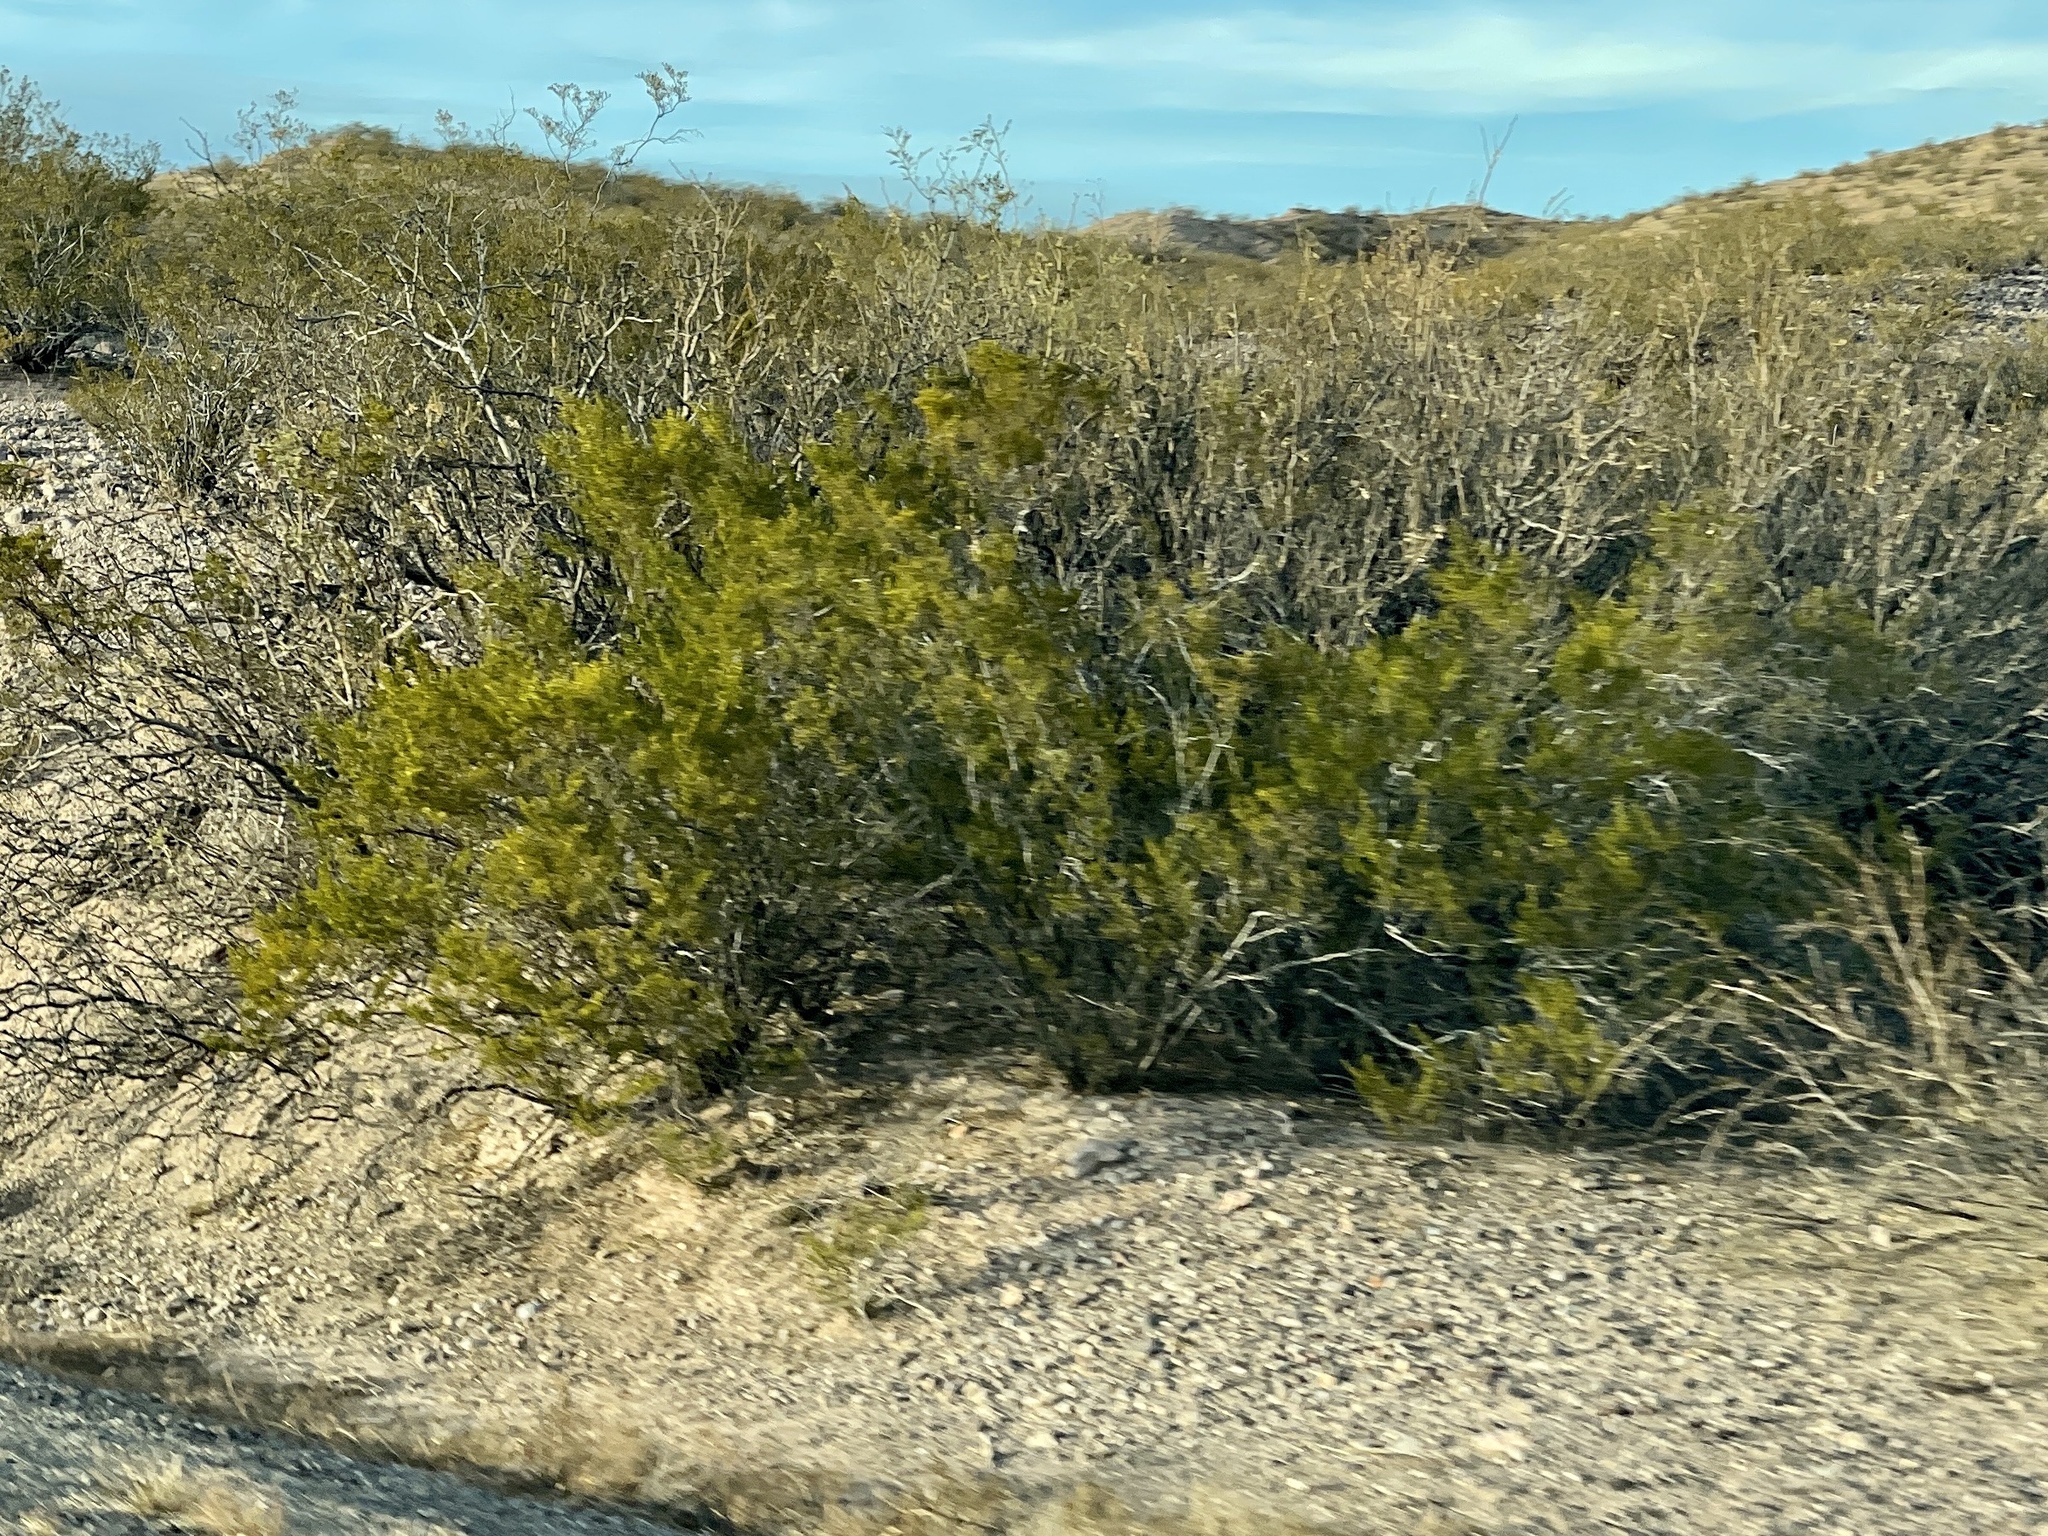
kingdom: Plantae
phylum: Tracheophyta
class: Magnoliopsida
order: Zygophyllales
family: Zygophyllaceae
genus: Larrea
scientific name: Larrea tridentata
